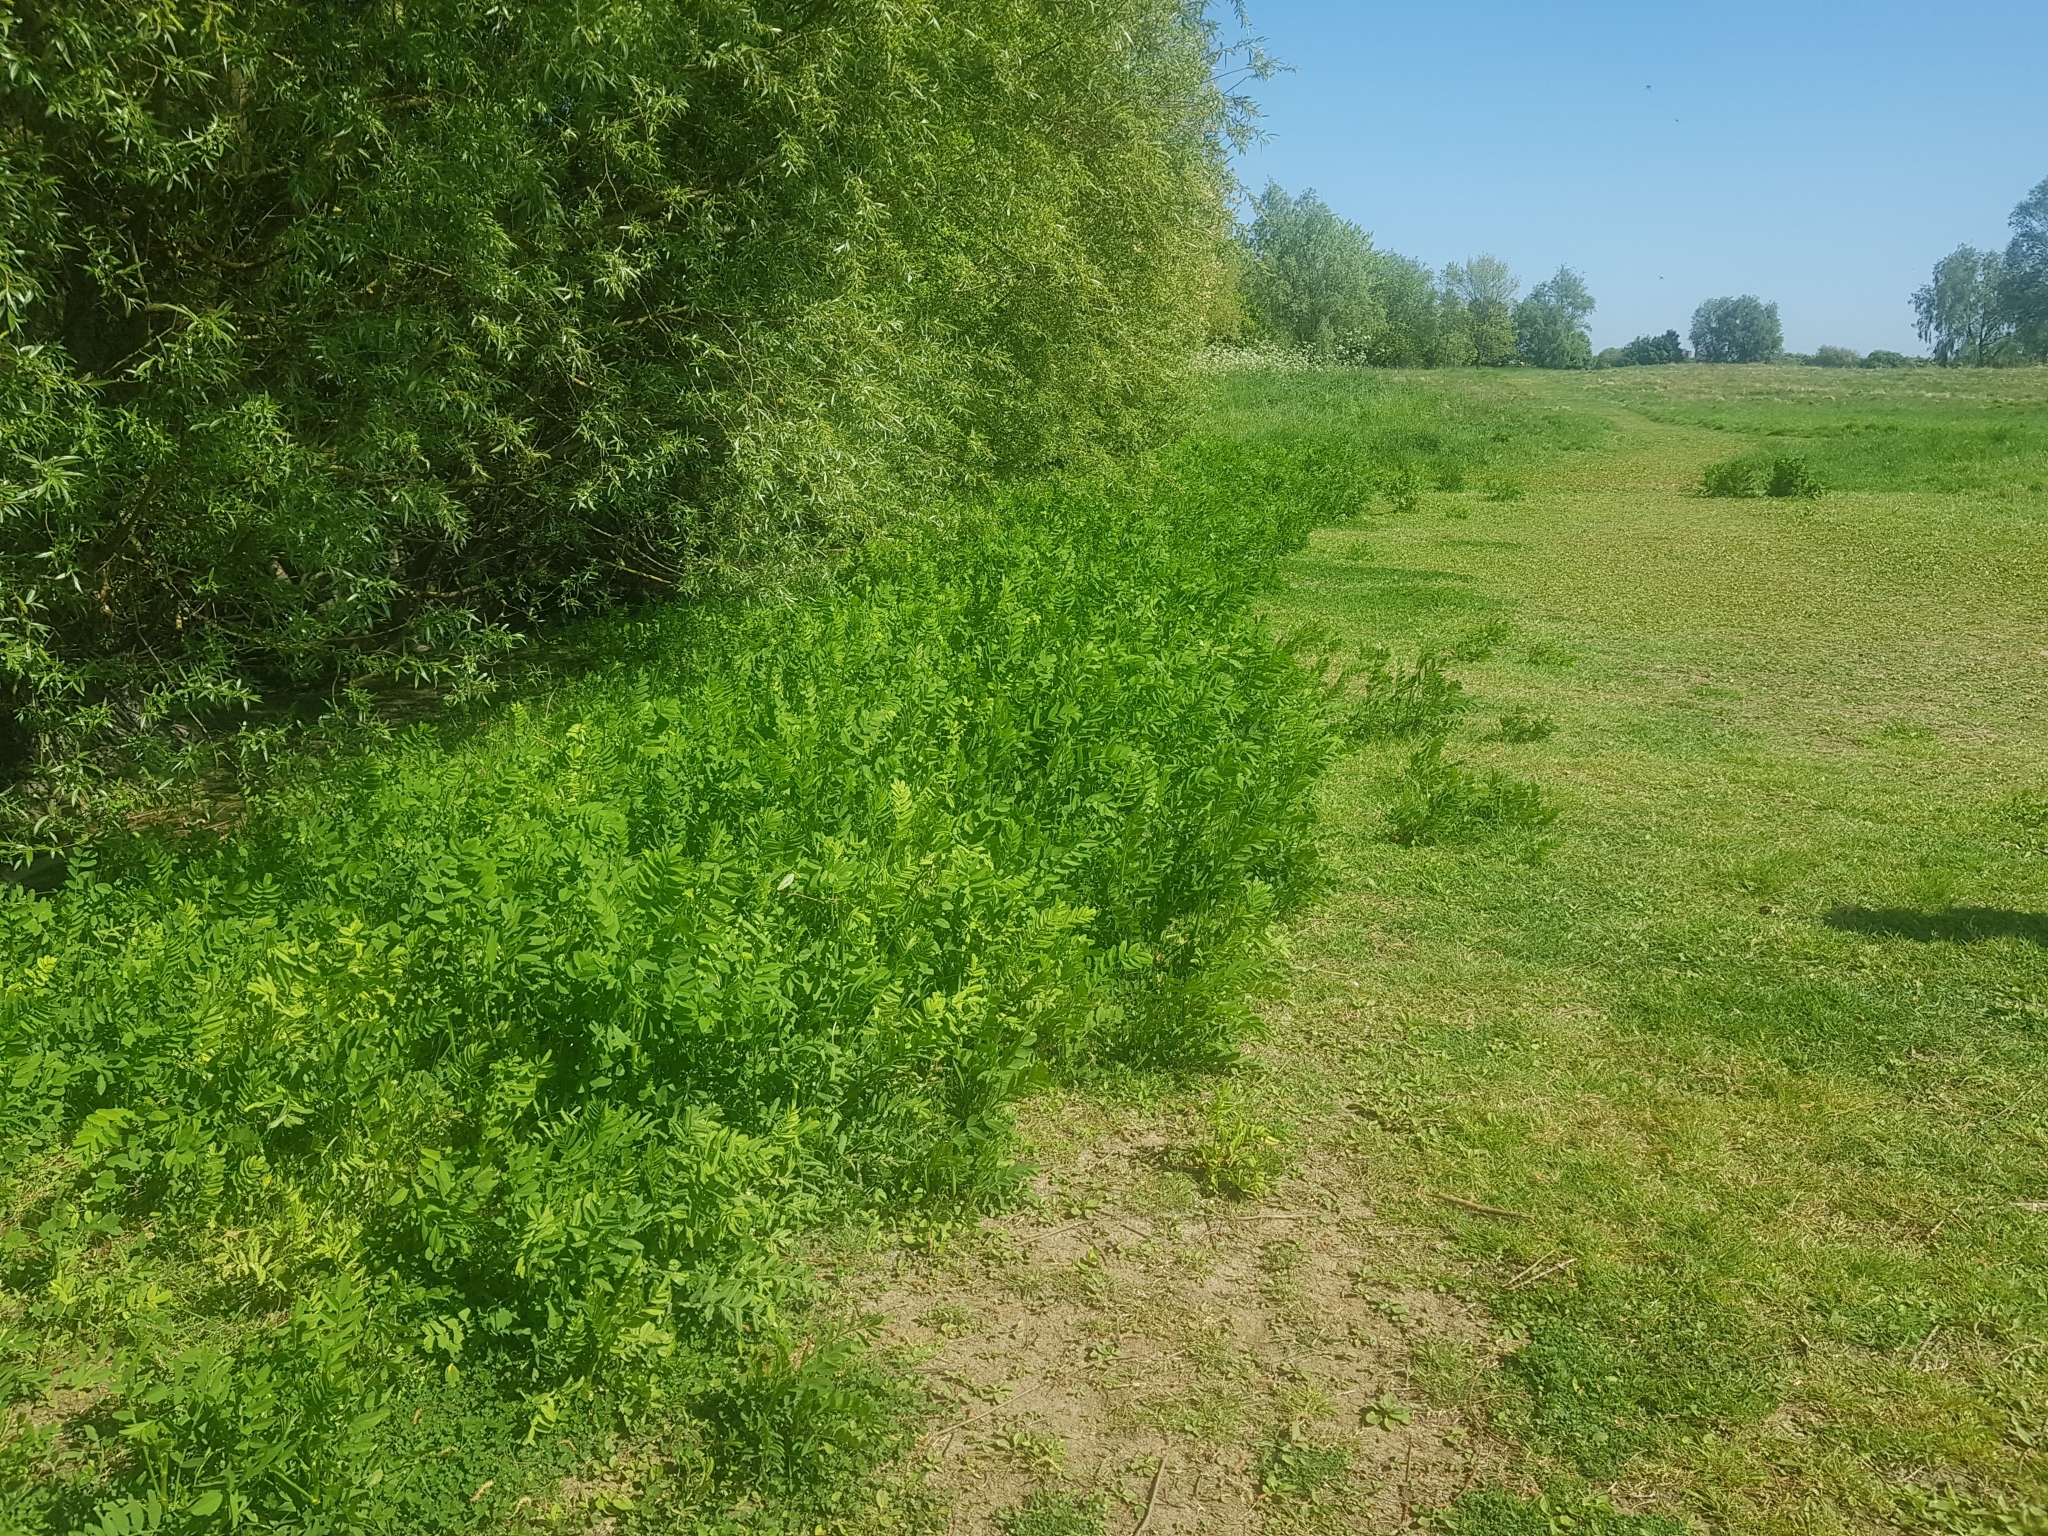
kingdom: Plantae
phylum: Tracheophyta
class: Magnoliopsida
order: Fabales
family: Fabaceae
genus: Galega
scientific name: Galega officinalis
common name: Goat's-rue
